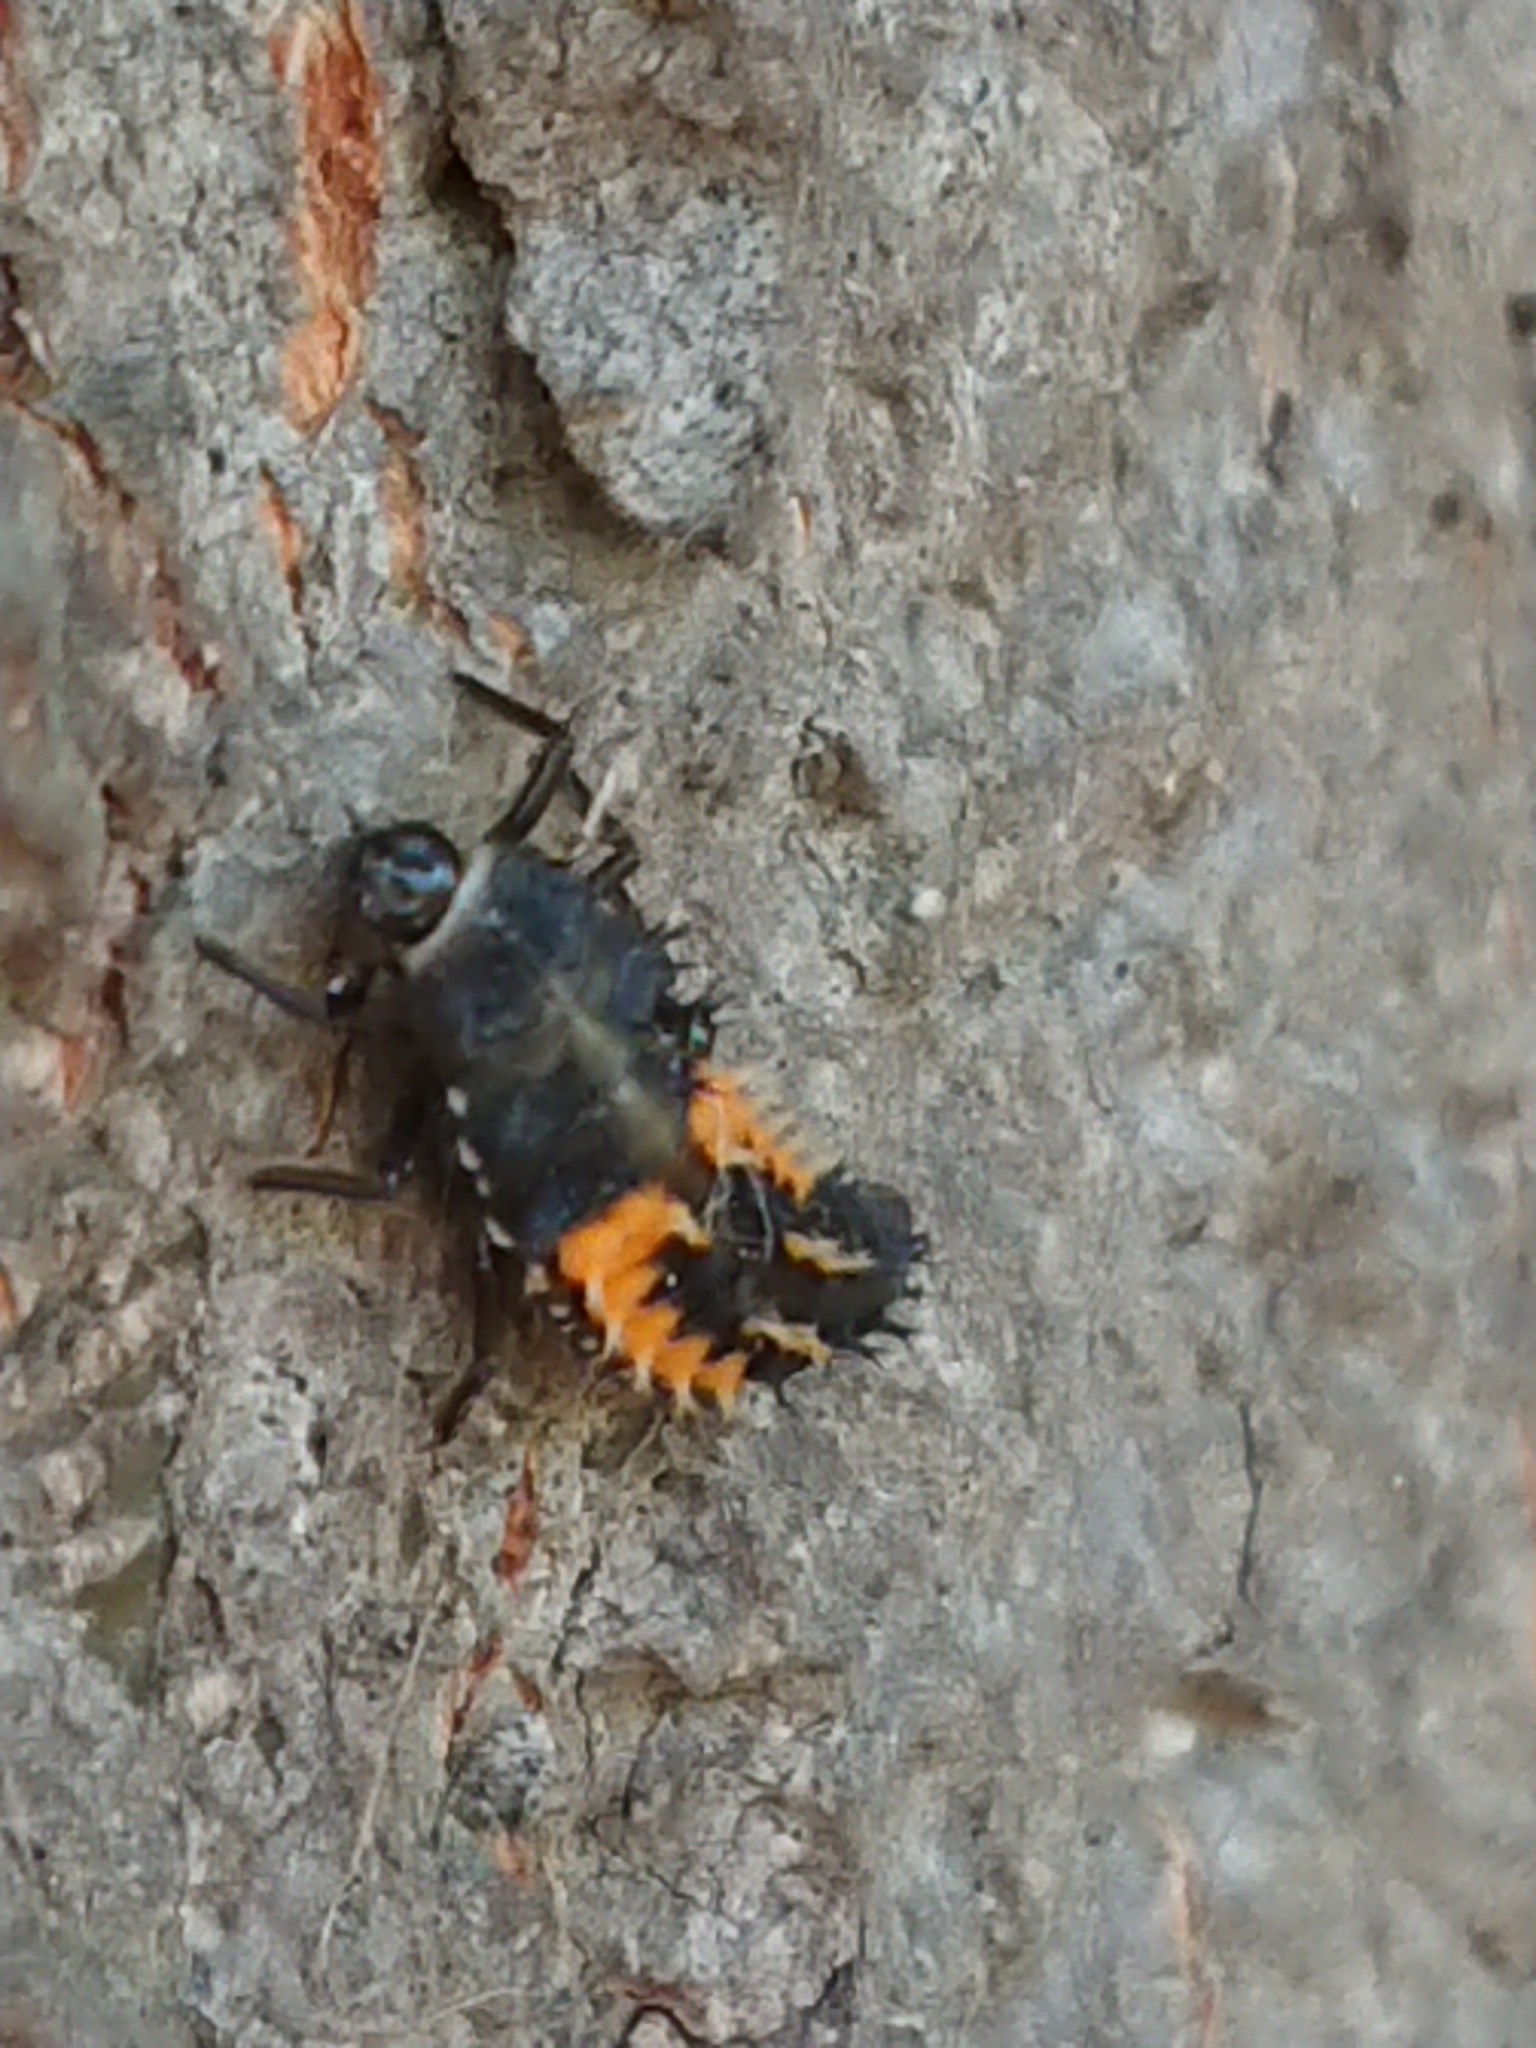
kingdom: Animalia
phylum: Arthropoda
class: Insecta
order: Coleoptera
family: Coccinellidae
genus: Harmonia
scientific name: Harmonia axyridis
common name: Harlequin ladybird
